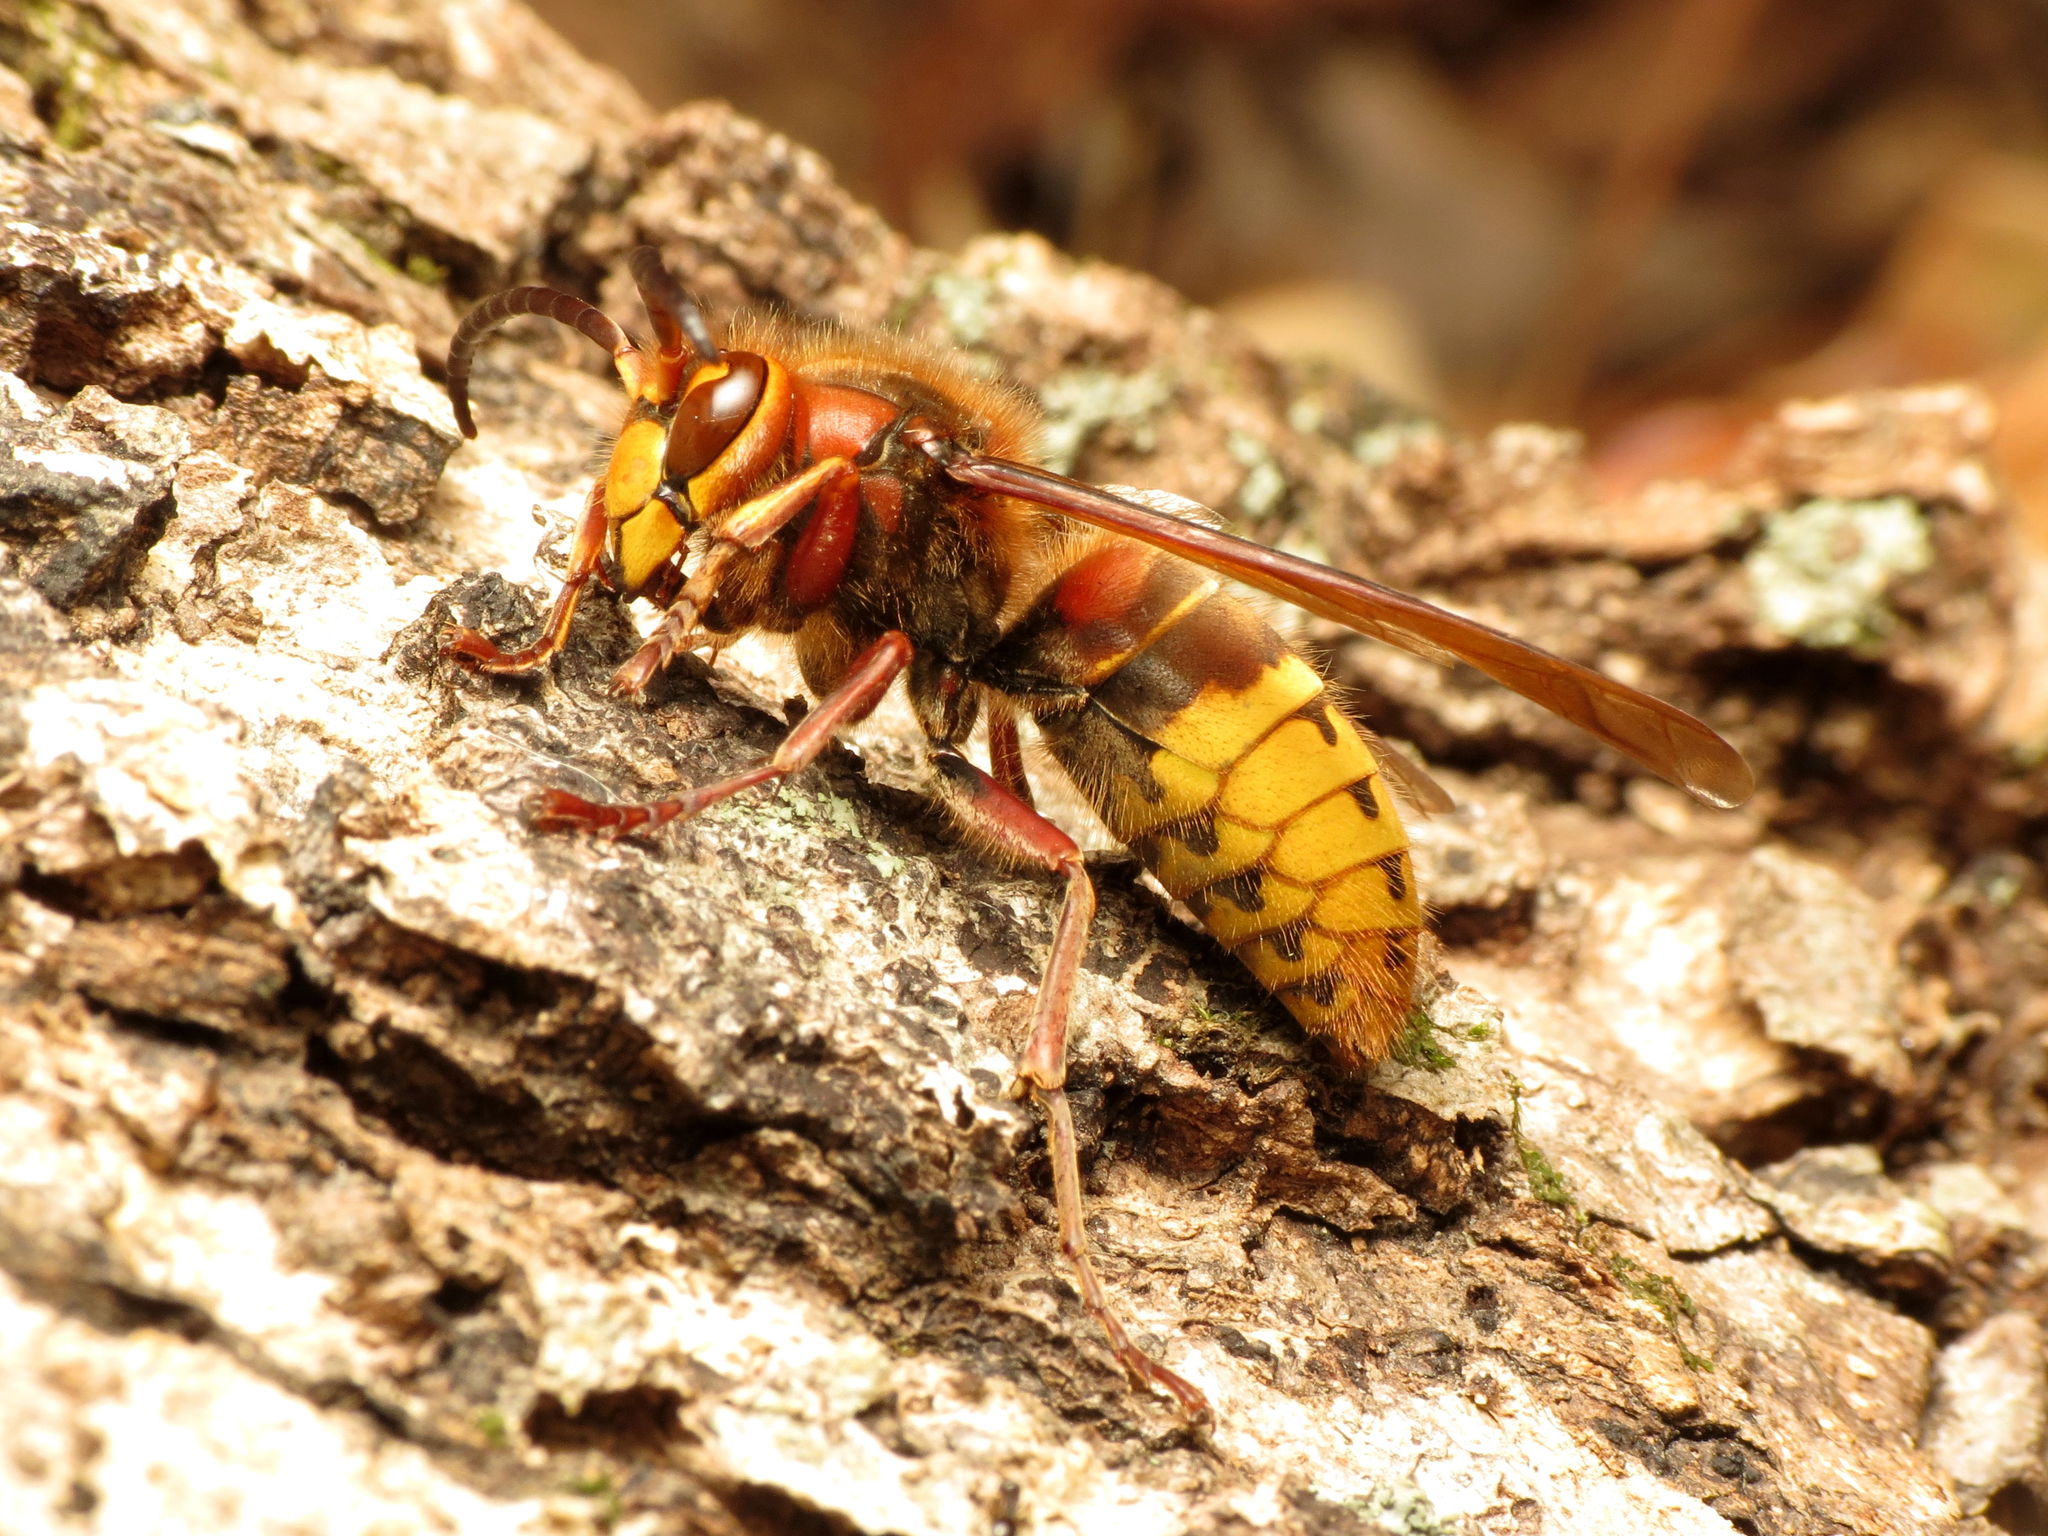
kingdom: Animalia
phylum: Arthropoda
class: Insecta
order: Hymenoptera
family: Vespidae
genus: Vespa
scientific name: Vespa crabro
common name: Hornet
